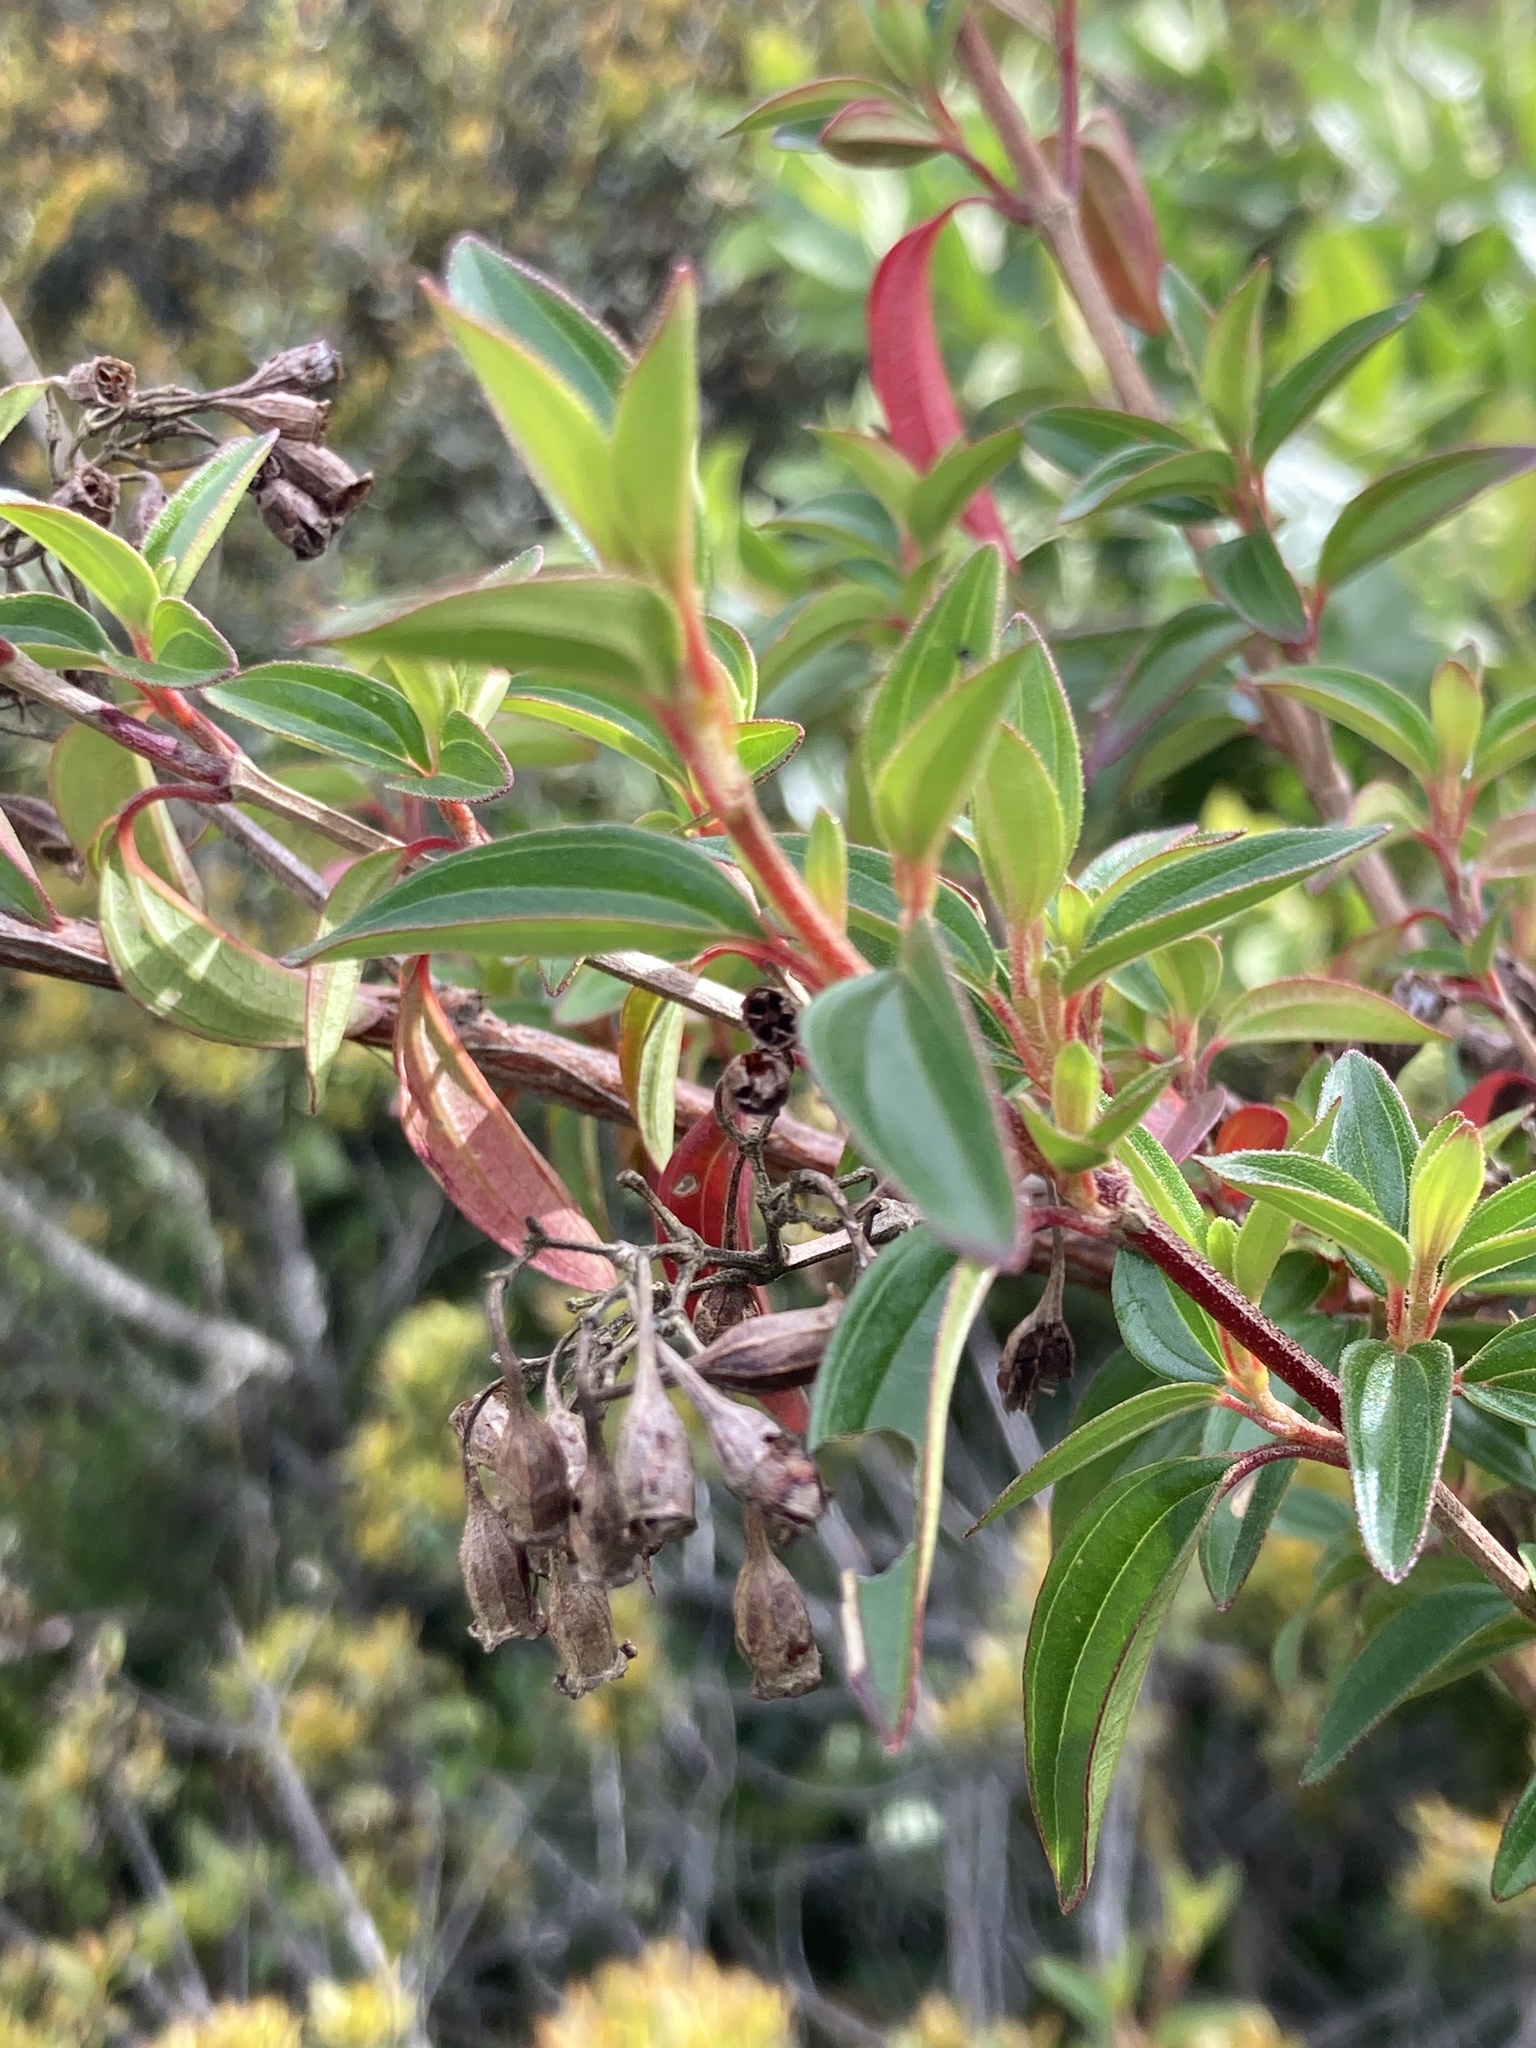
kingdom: Plantae
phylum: Tracheophyta
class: Magnoliopsida
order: Myrtales
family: Melastomataceae
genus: Monochaetum
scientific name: Monochaetum myrtoideum
